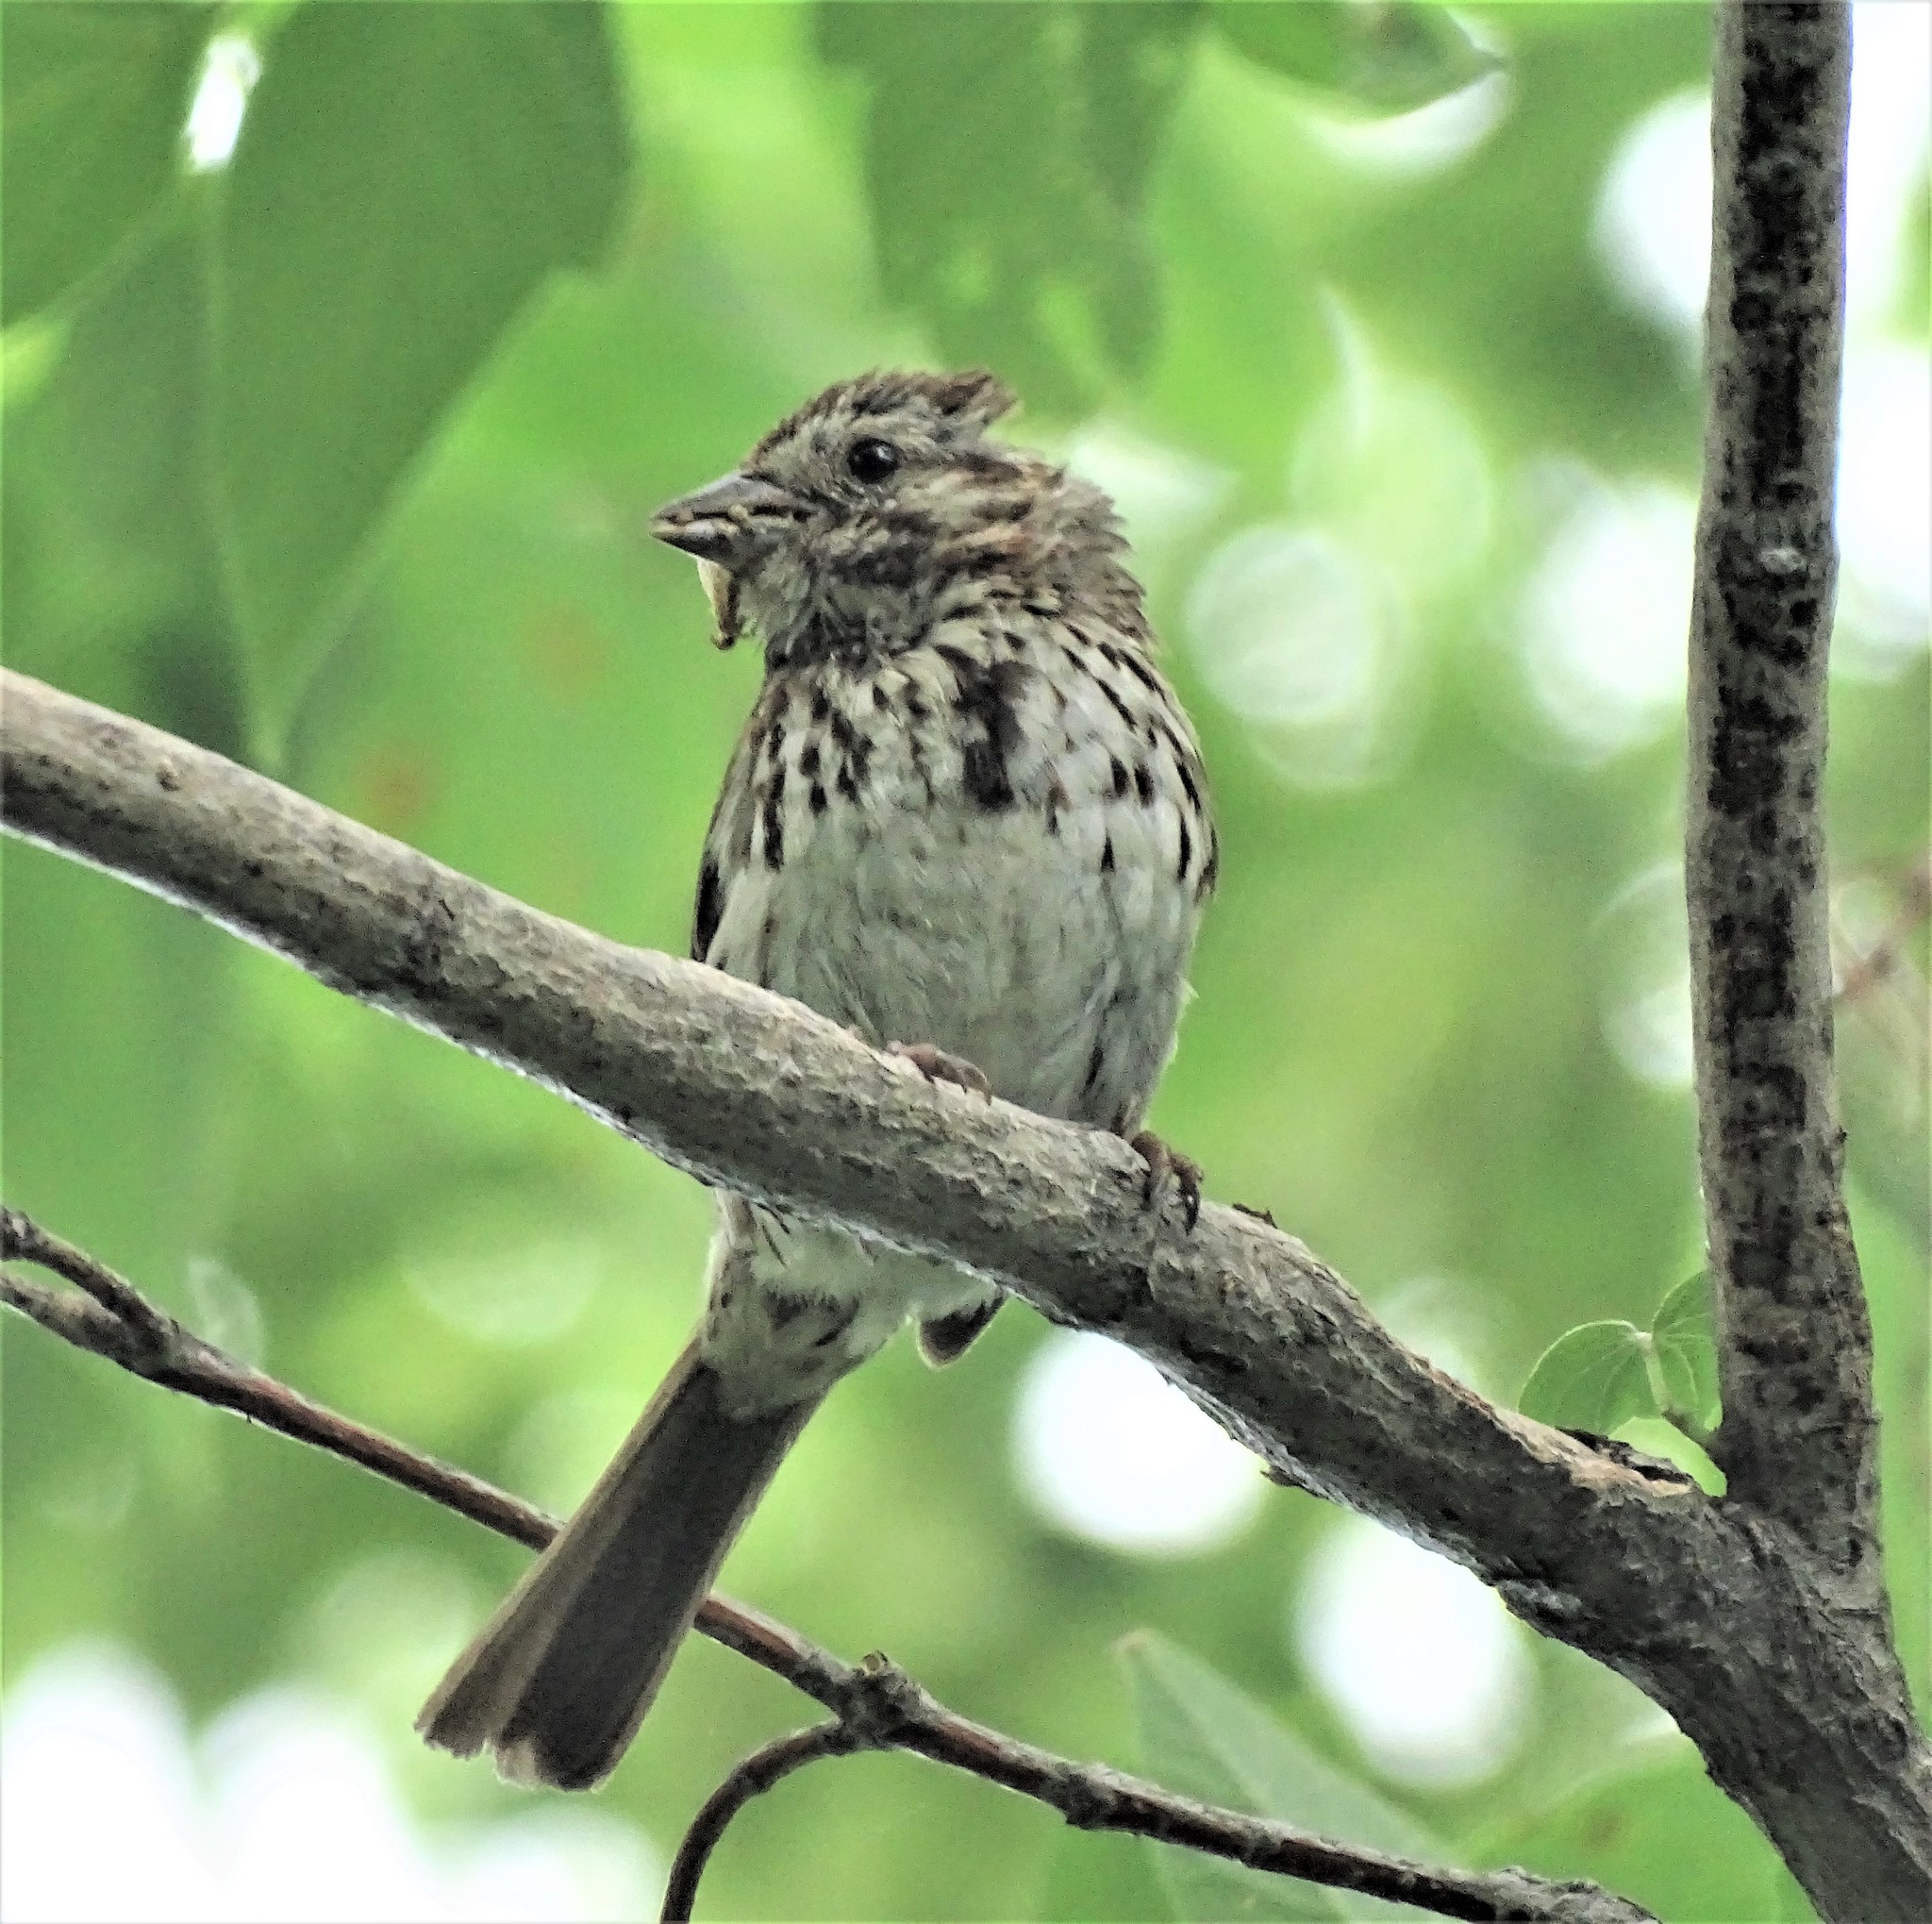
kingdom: Animalia
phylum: Chordata
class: Aves
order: Passeriformes
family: Passerellidae
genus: Melospiza
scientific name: Melospiza melodia
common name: Song sparrow
